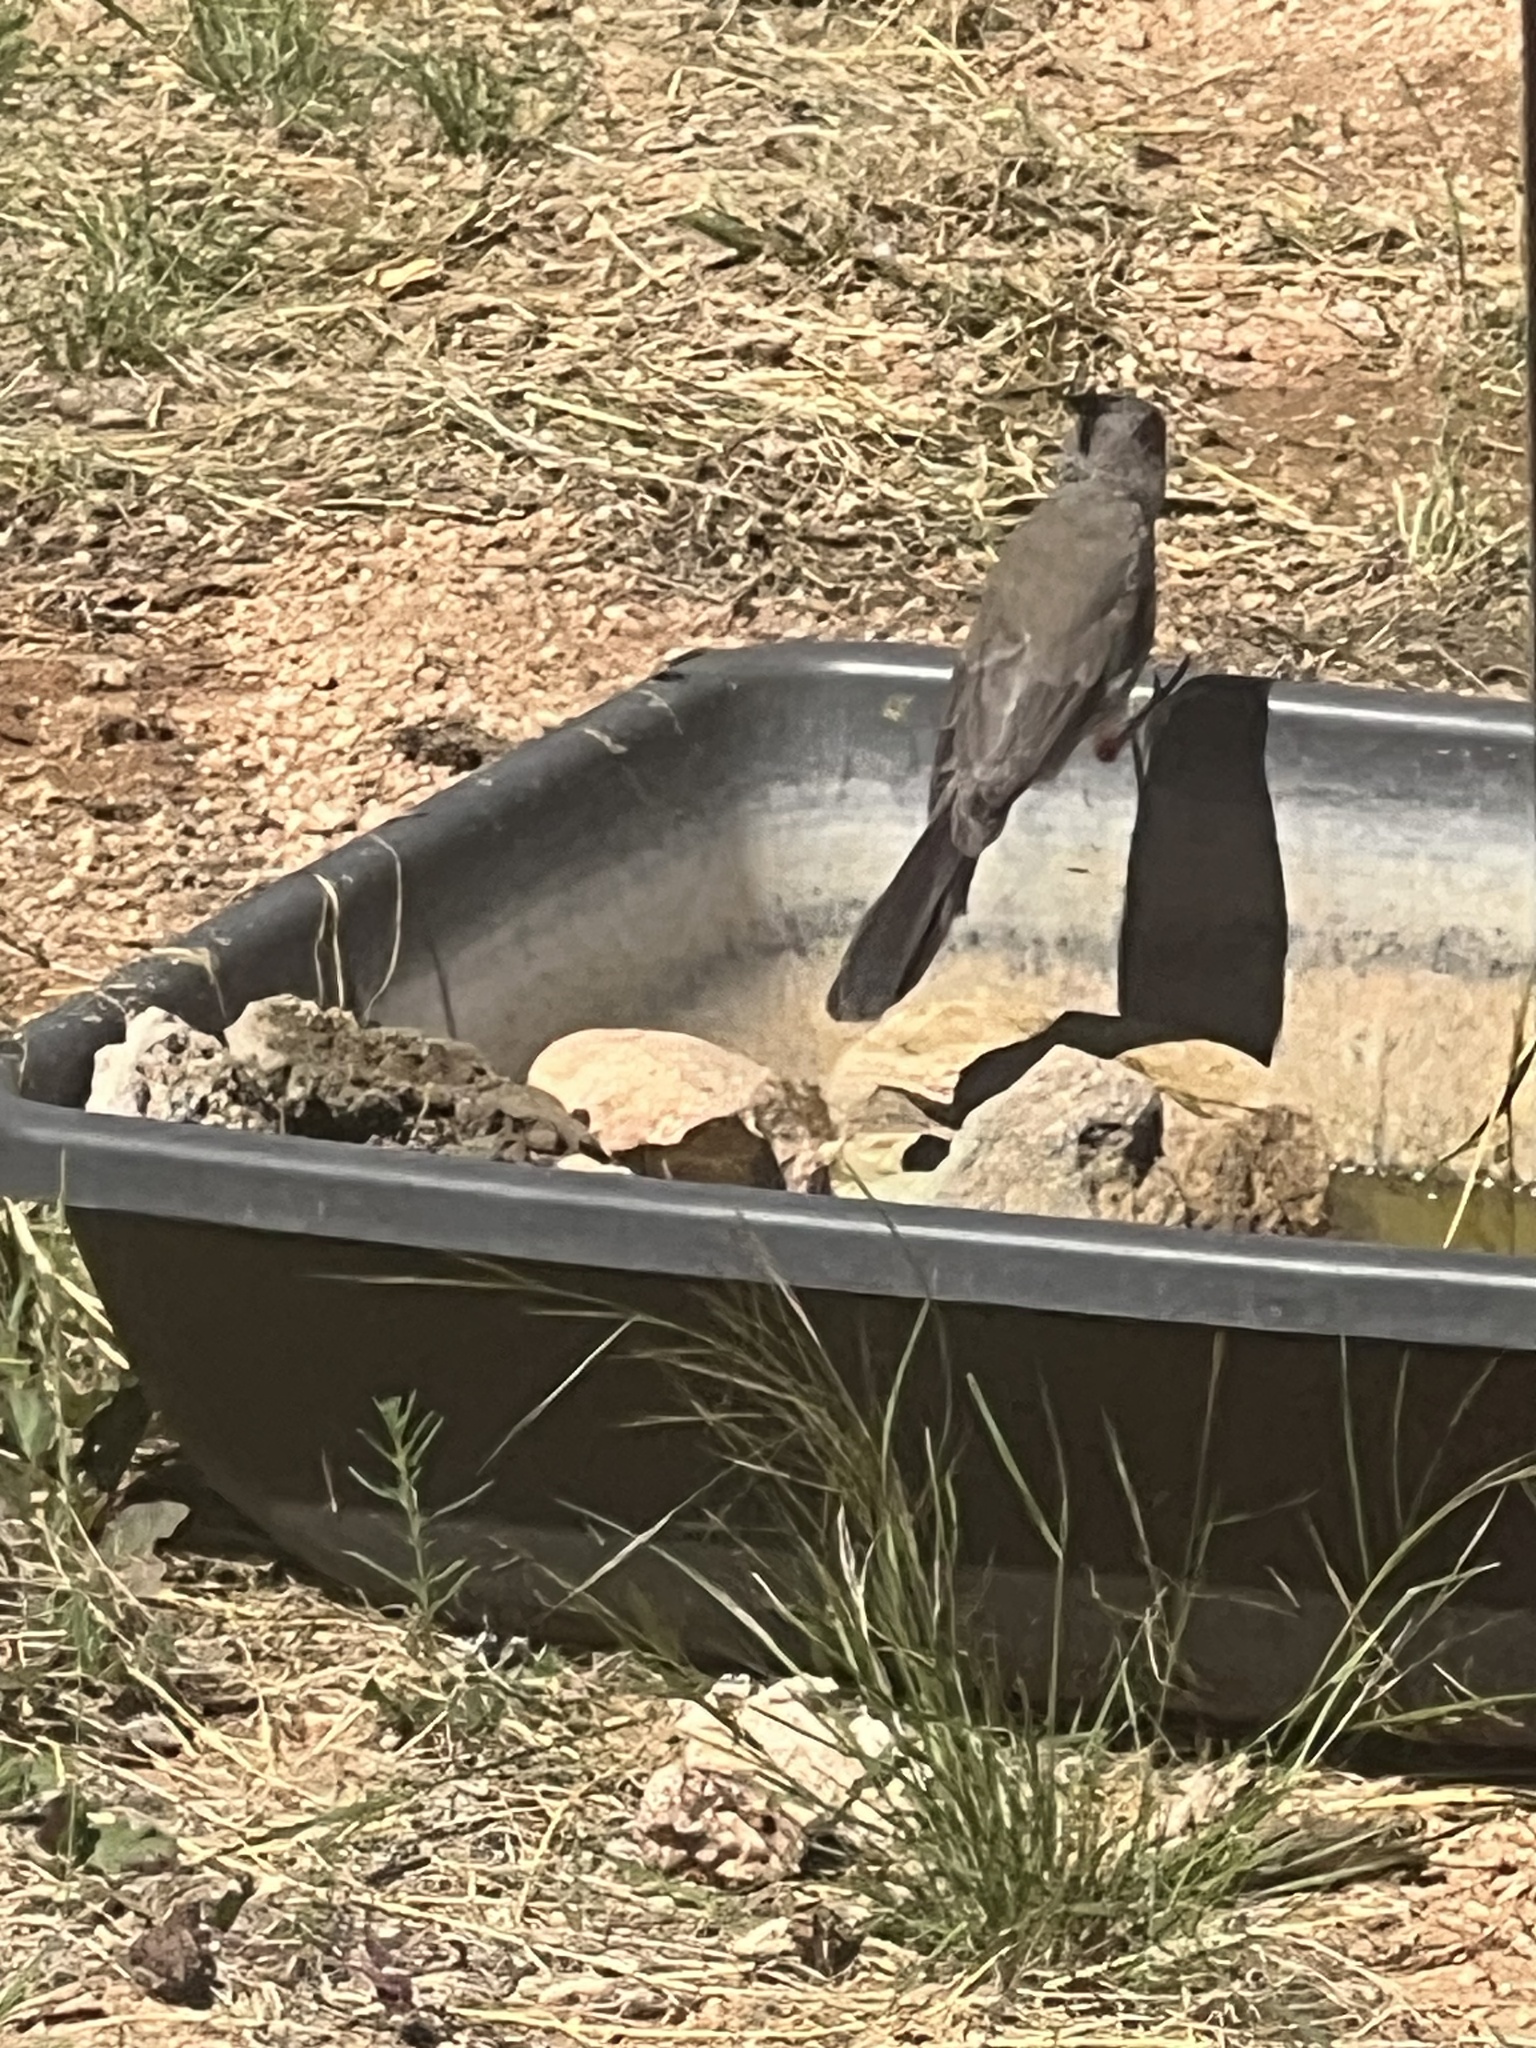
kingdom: Animalia
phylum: Chordata
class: Aves
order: Passeriformes
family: Cardinalidae
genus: Cardinalis
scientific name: Cardinalis sinuatus
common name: Pyrrhuloxia
